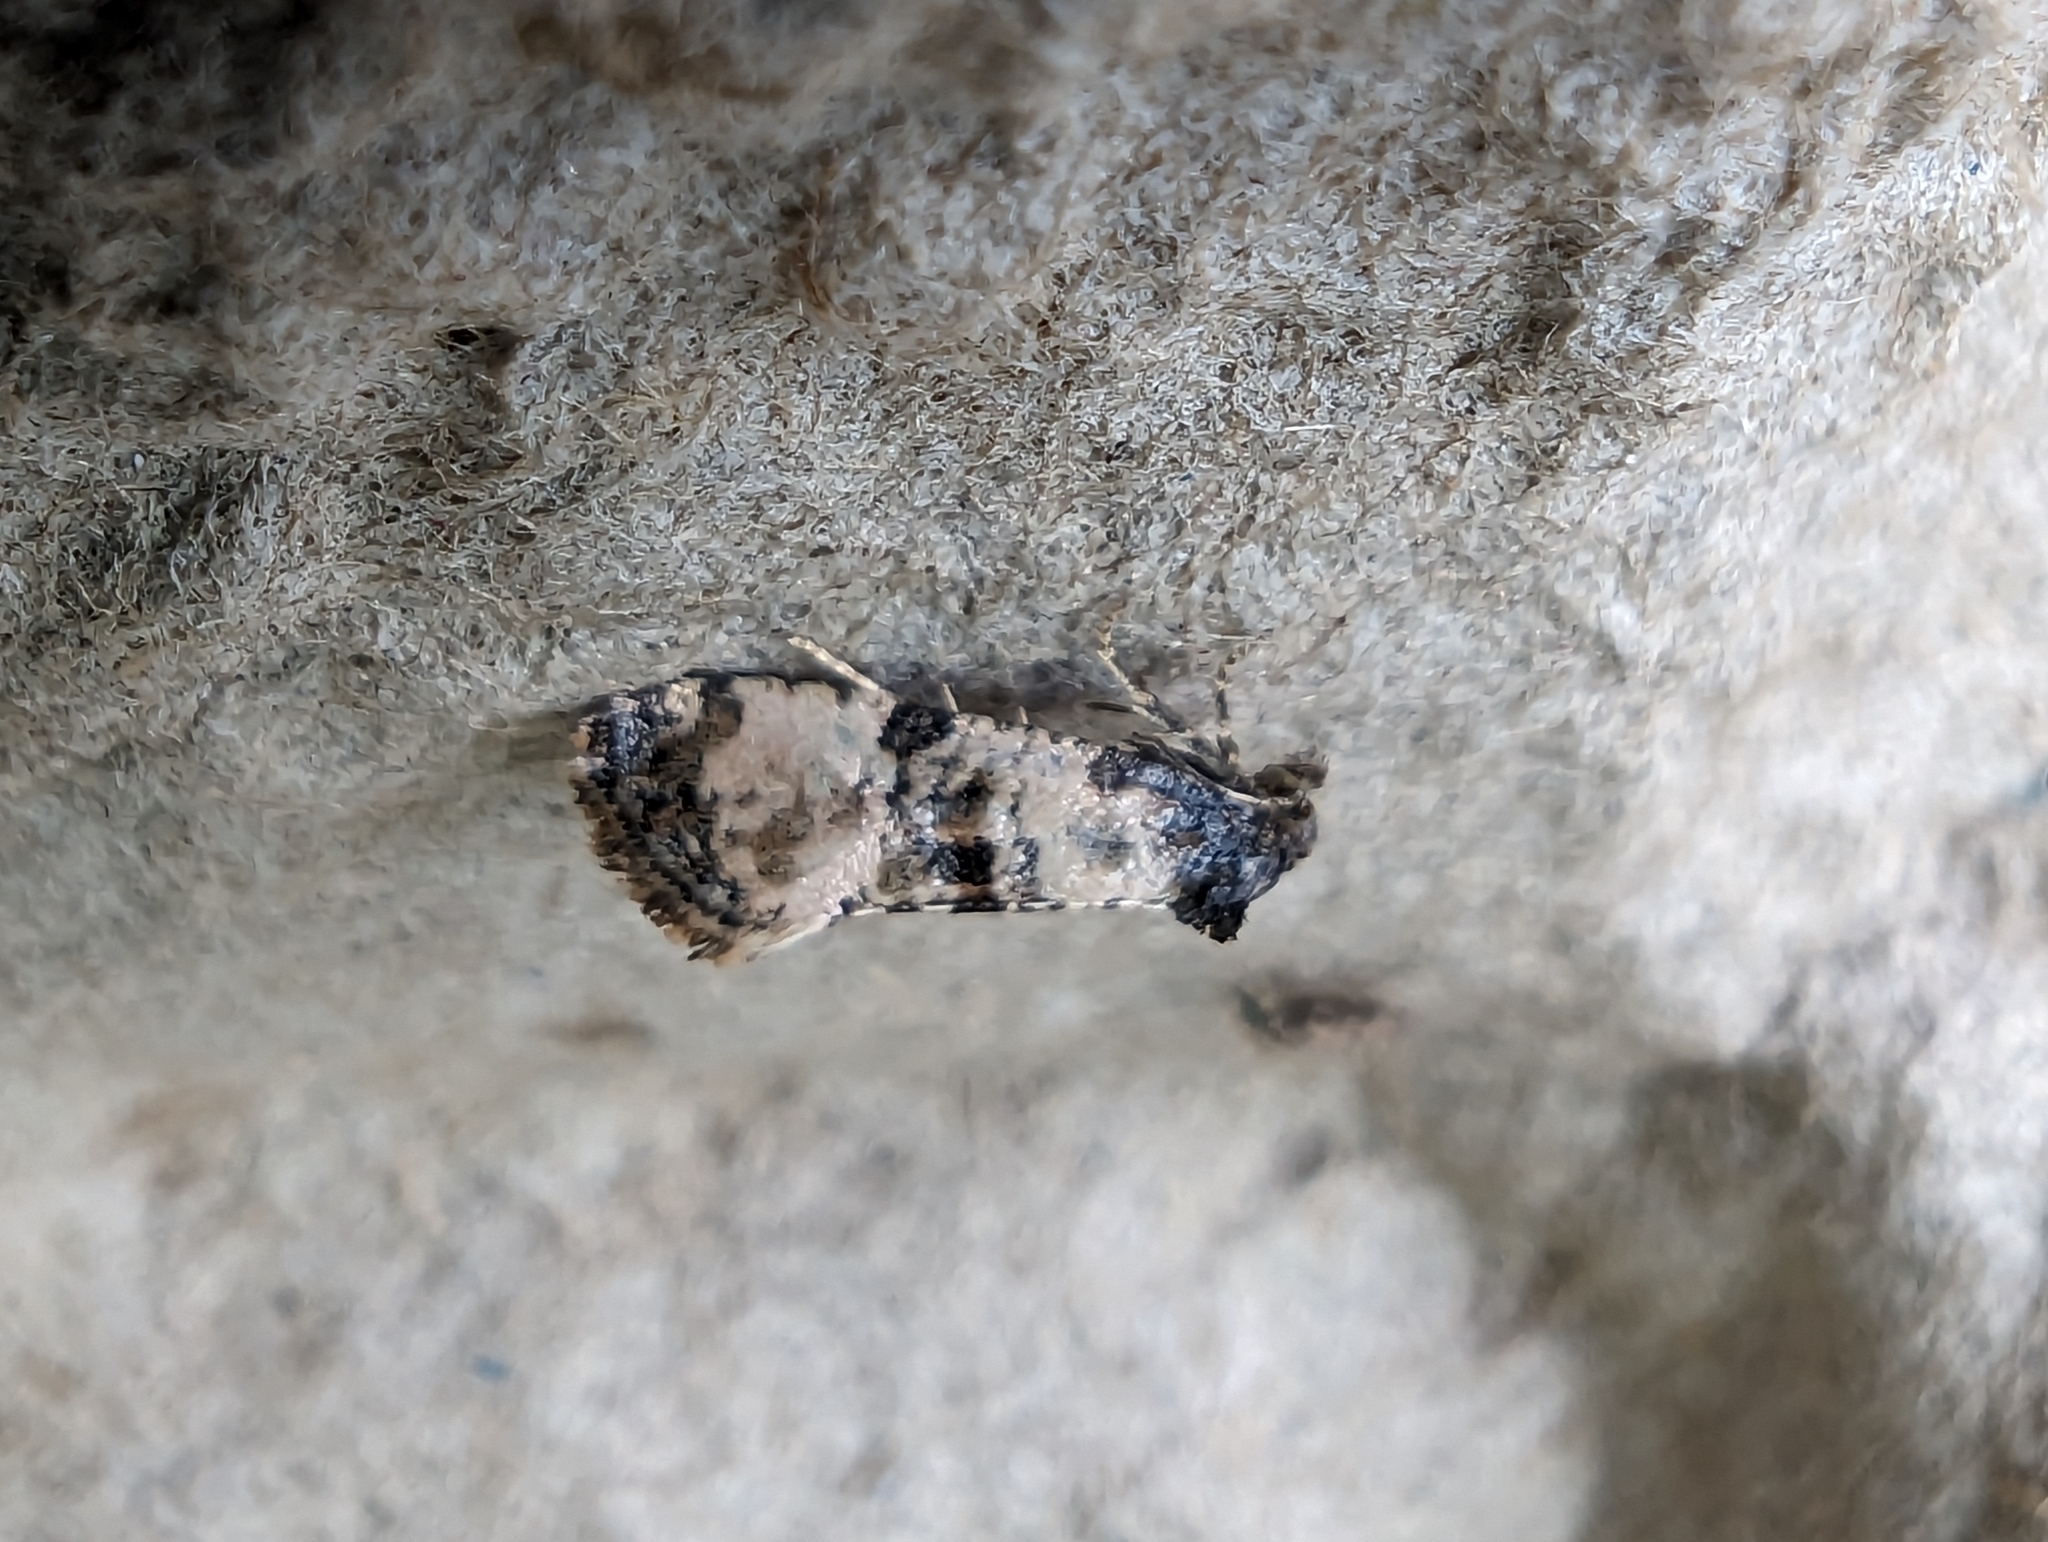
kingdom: Animalia
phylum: Arthropoda
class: Insecta
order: Lepidoptera
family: Tortricidae
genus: Cochylis
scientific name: Cochylis atricapitana
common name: Tortricid moth
